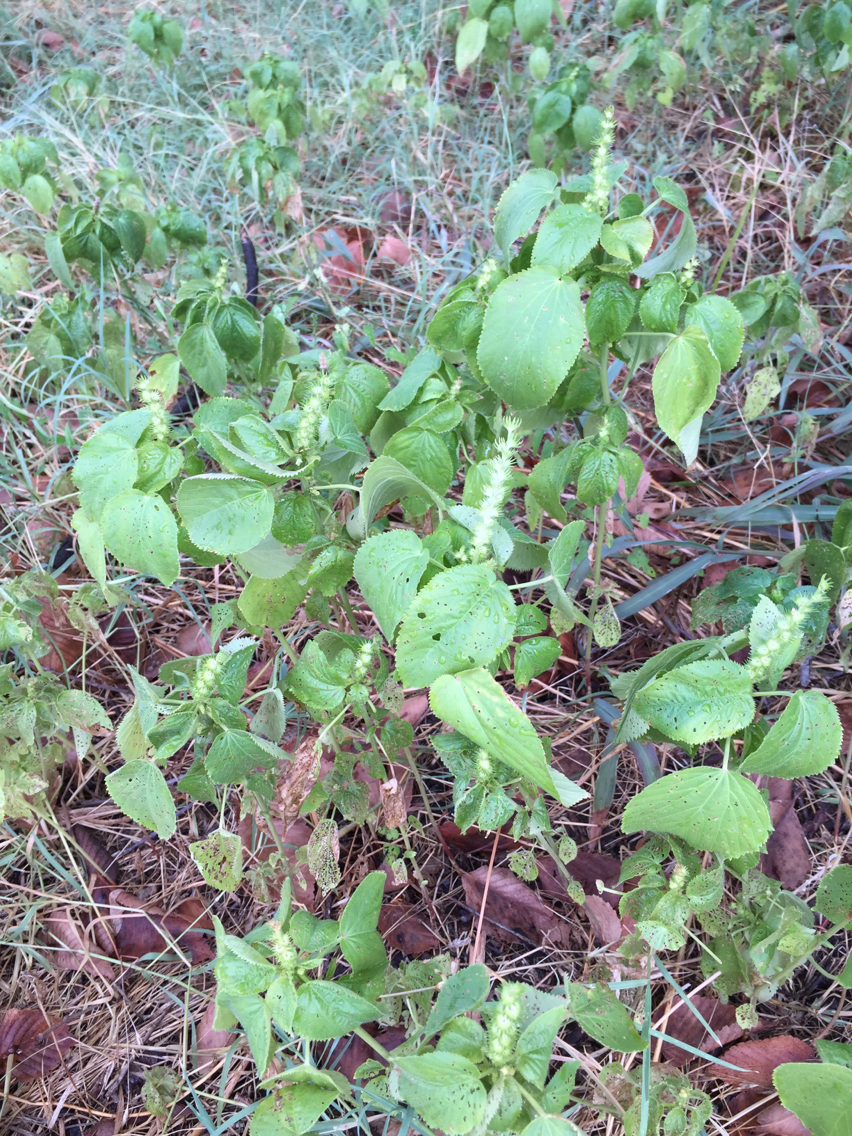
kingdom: Plantae
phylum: Tracheophyta
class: Magnoliopsida
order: Malpighiales
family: Euphorbiaceae
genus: Acalypha
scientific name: Acalypha ostryifolia
